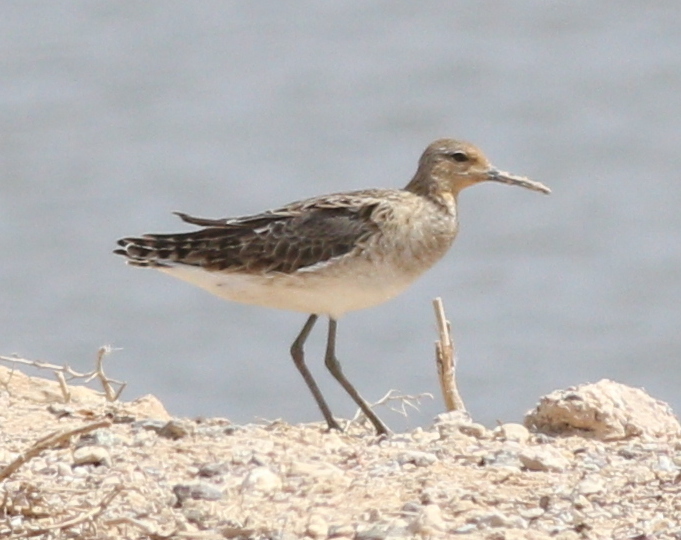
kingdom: Animalia
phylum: Chordata
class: Aves
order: Charadriiformes
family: Scolopacidae
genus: Calidris
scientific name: Calidris pugnax
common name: Ruff
